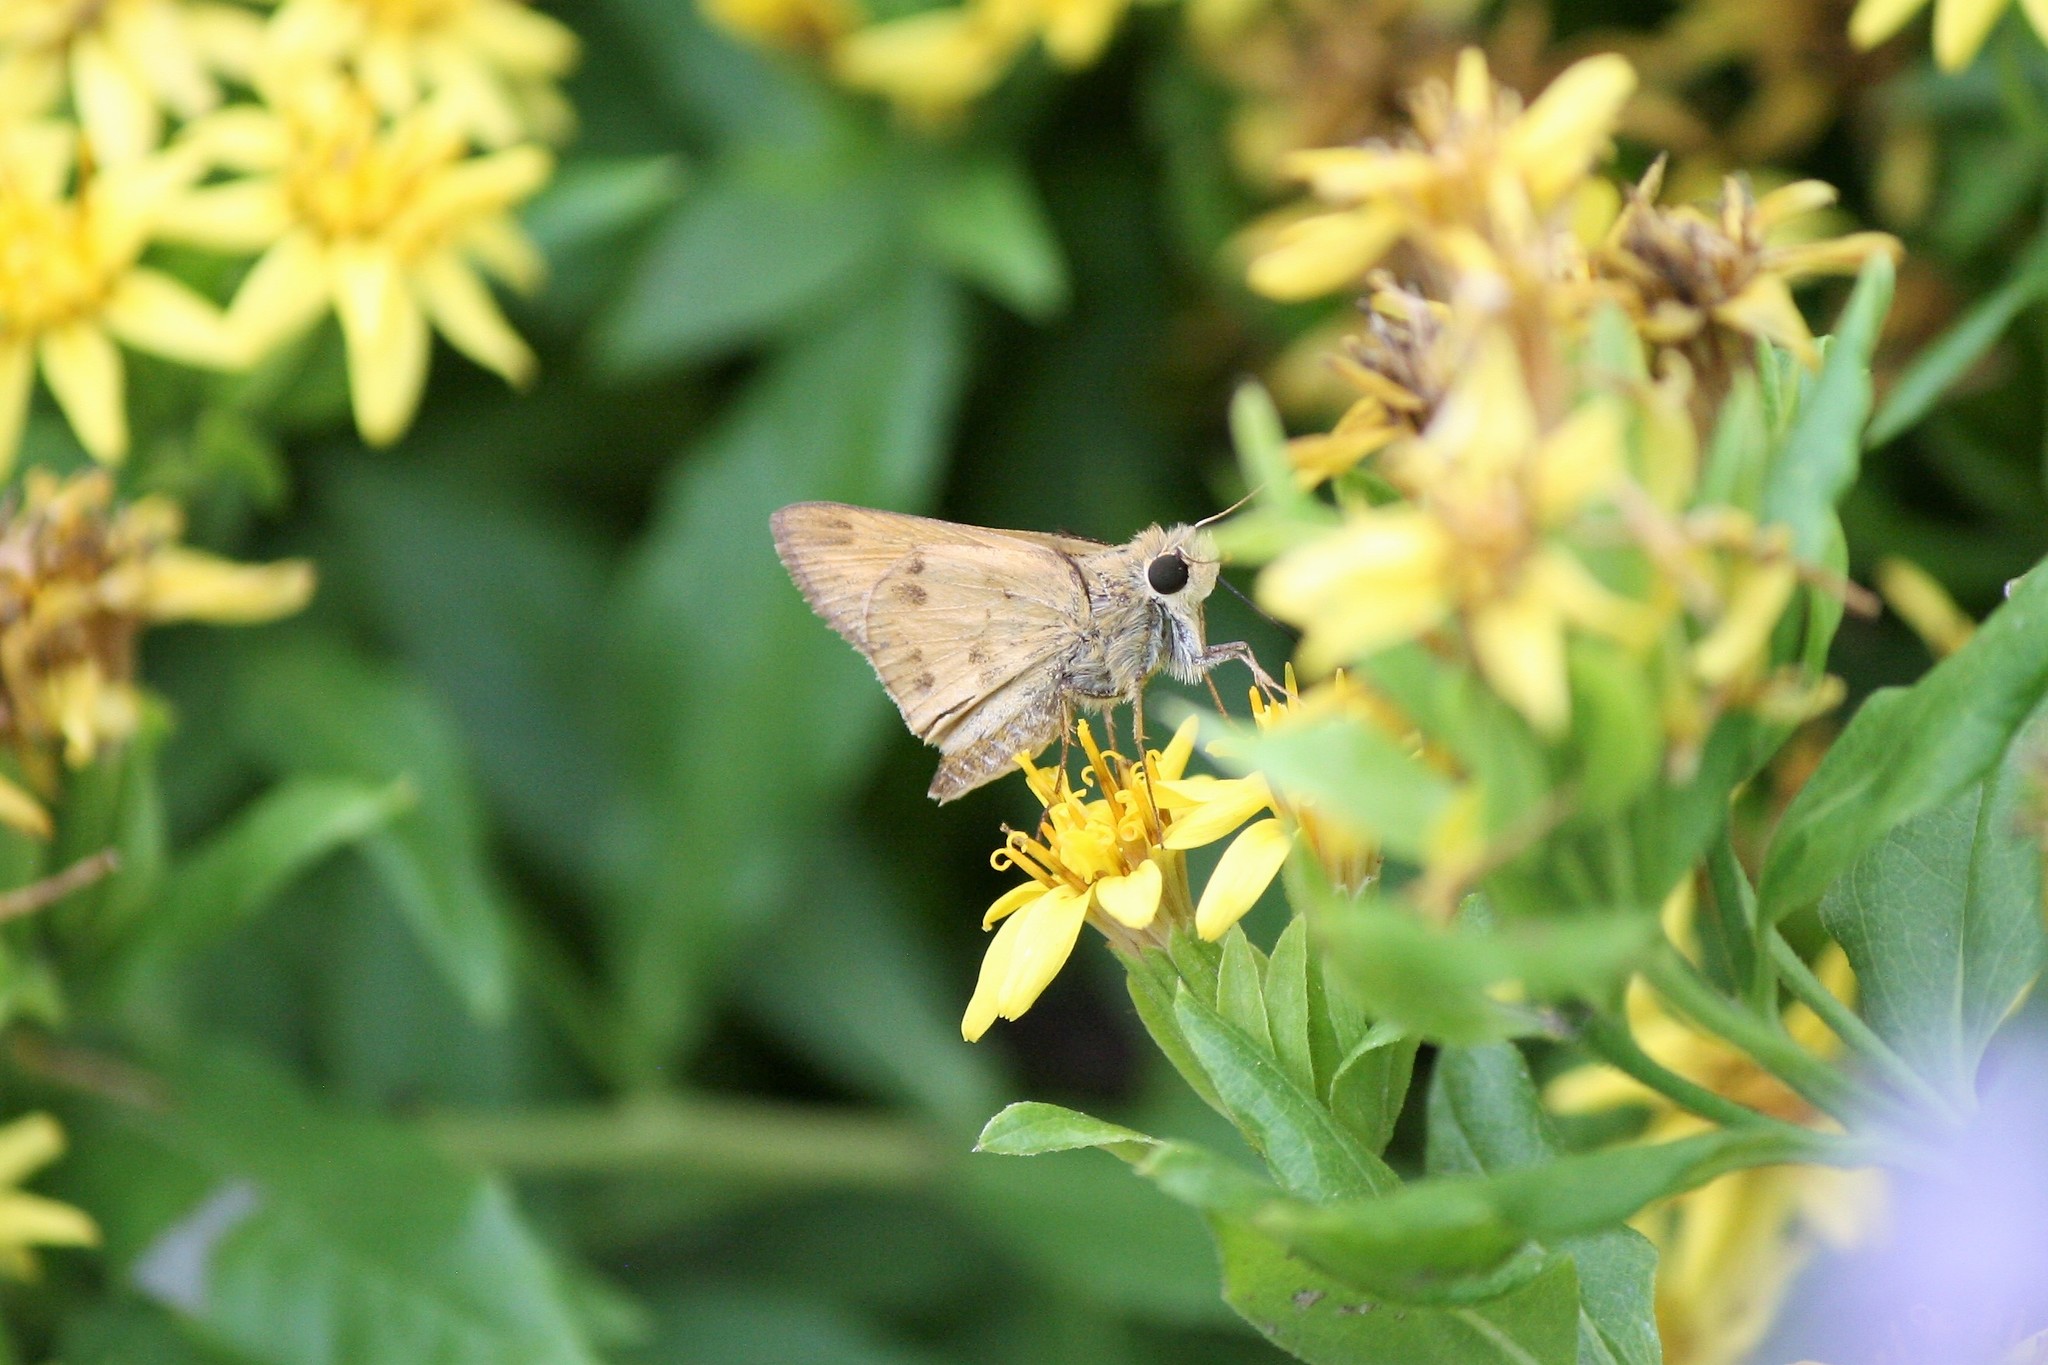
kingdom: Animalia
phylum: Arthropoda
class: Insecta
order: Lepidoptera
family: Hesperiidae
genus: Polites
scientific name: Polites vibex
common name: Whirlabout
